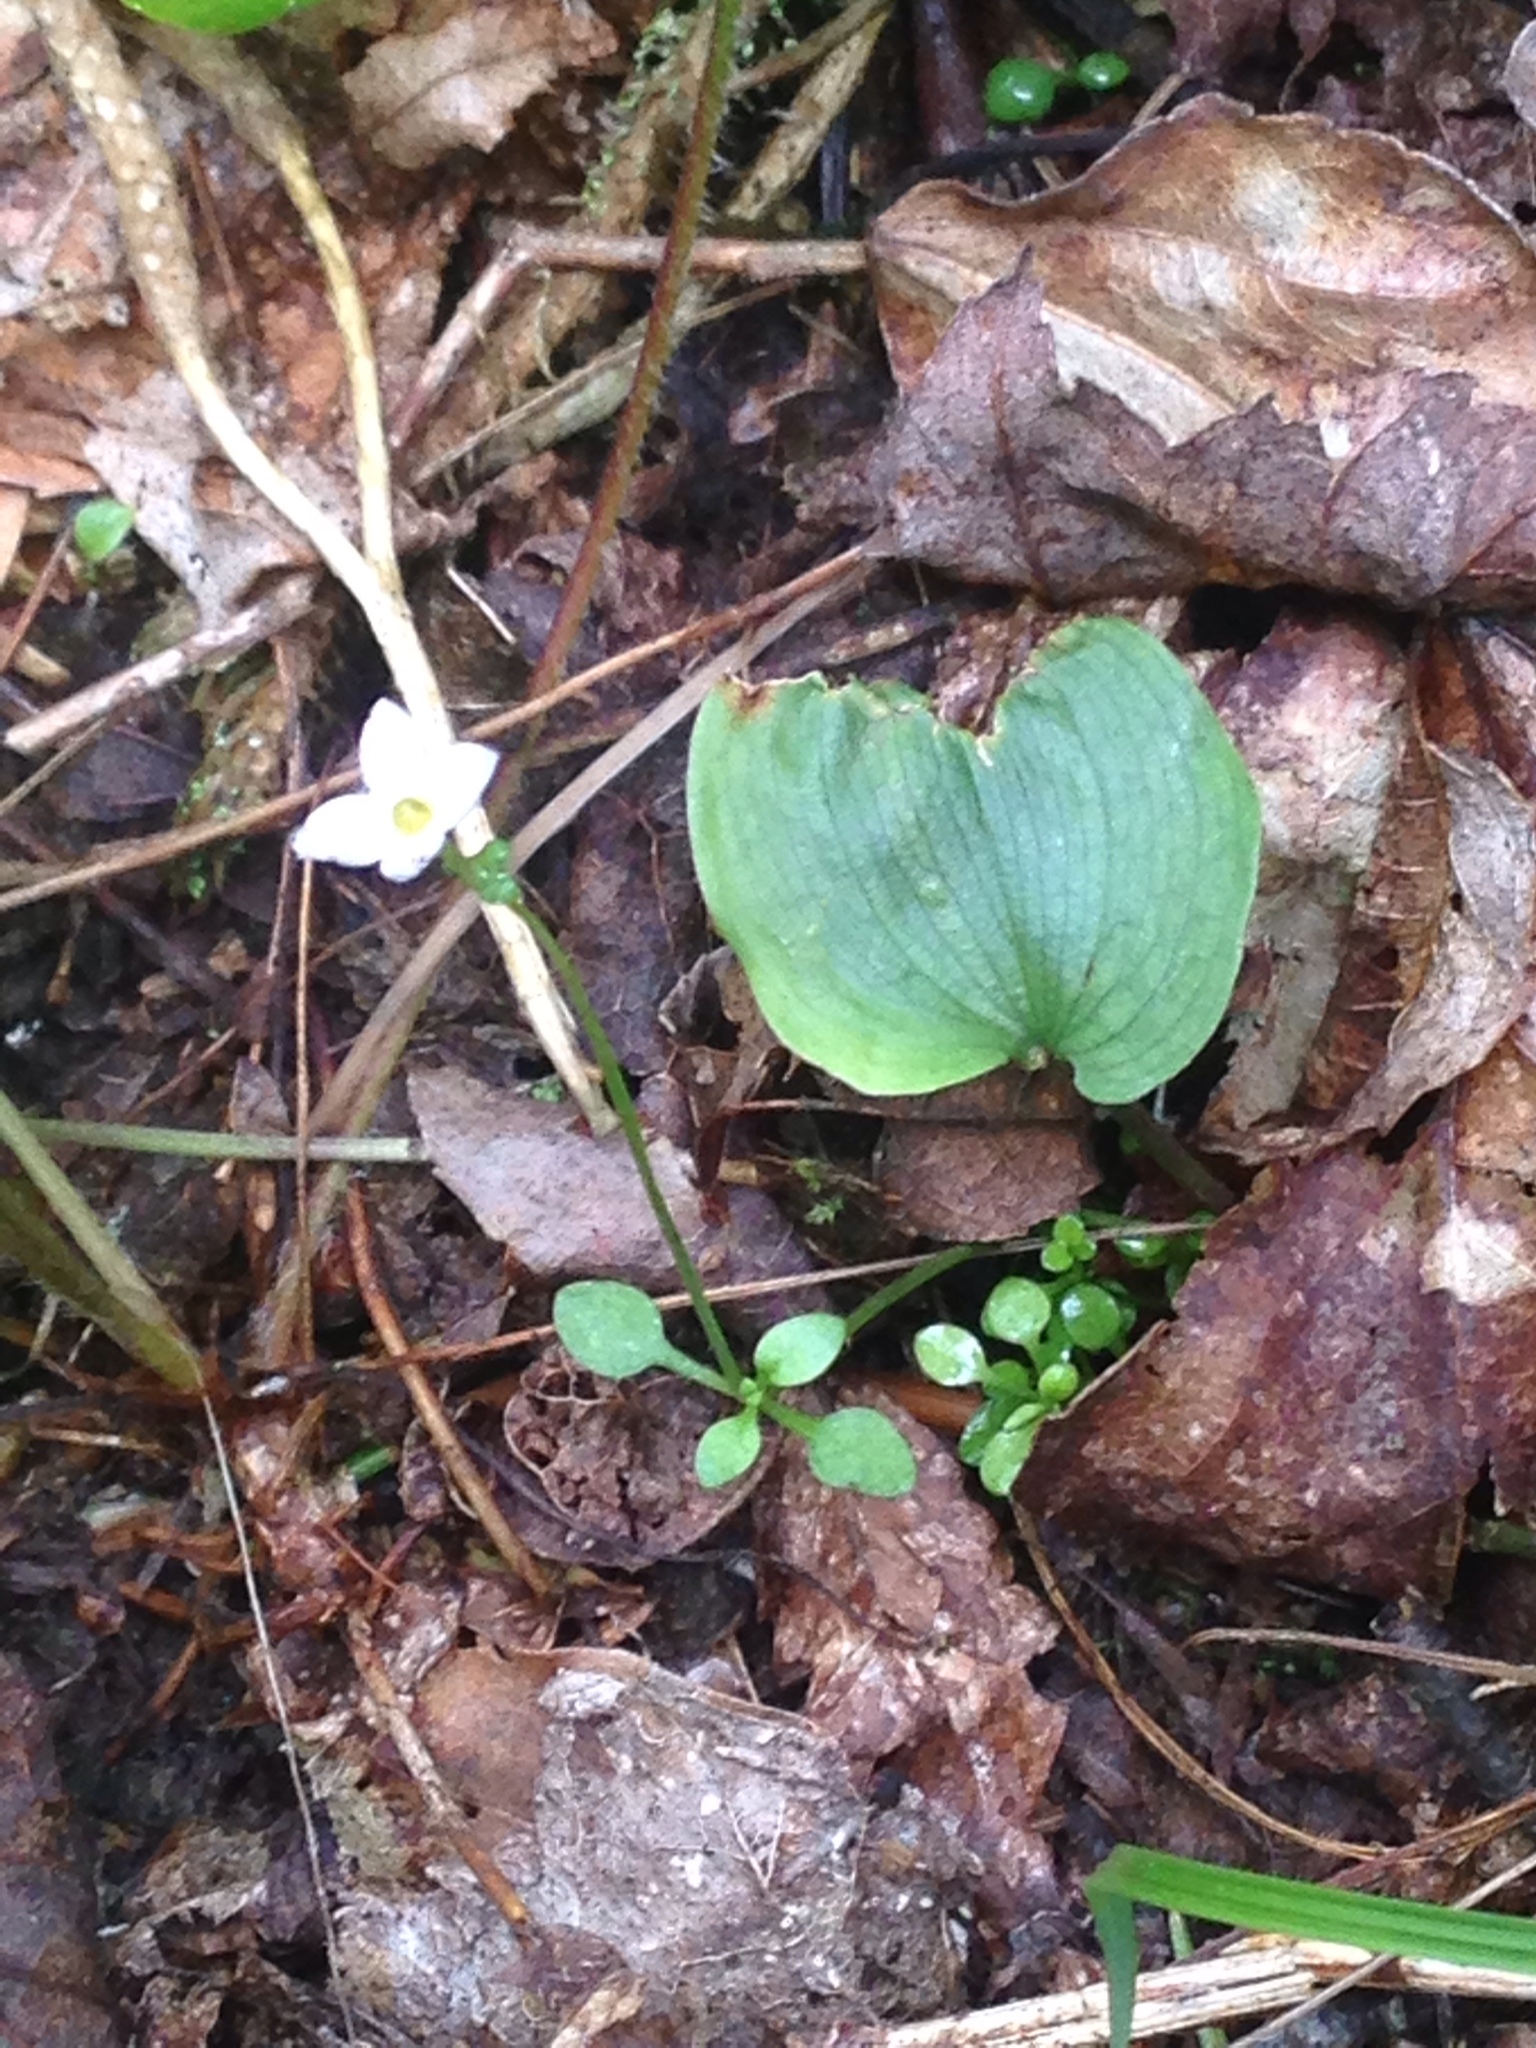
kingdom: Plantae
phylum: Tracheophyta
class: Magnoliopsida
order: Gentianales
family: Rubiaceae
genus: Houstonia
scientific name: Houstonia caerulea
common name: Bluets
